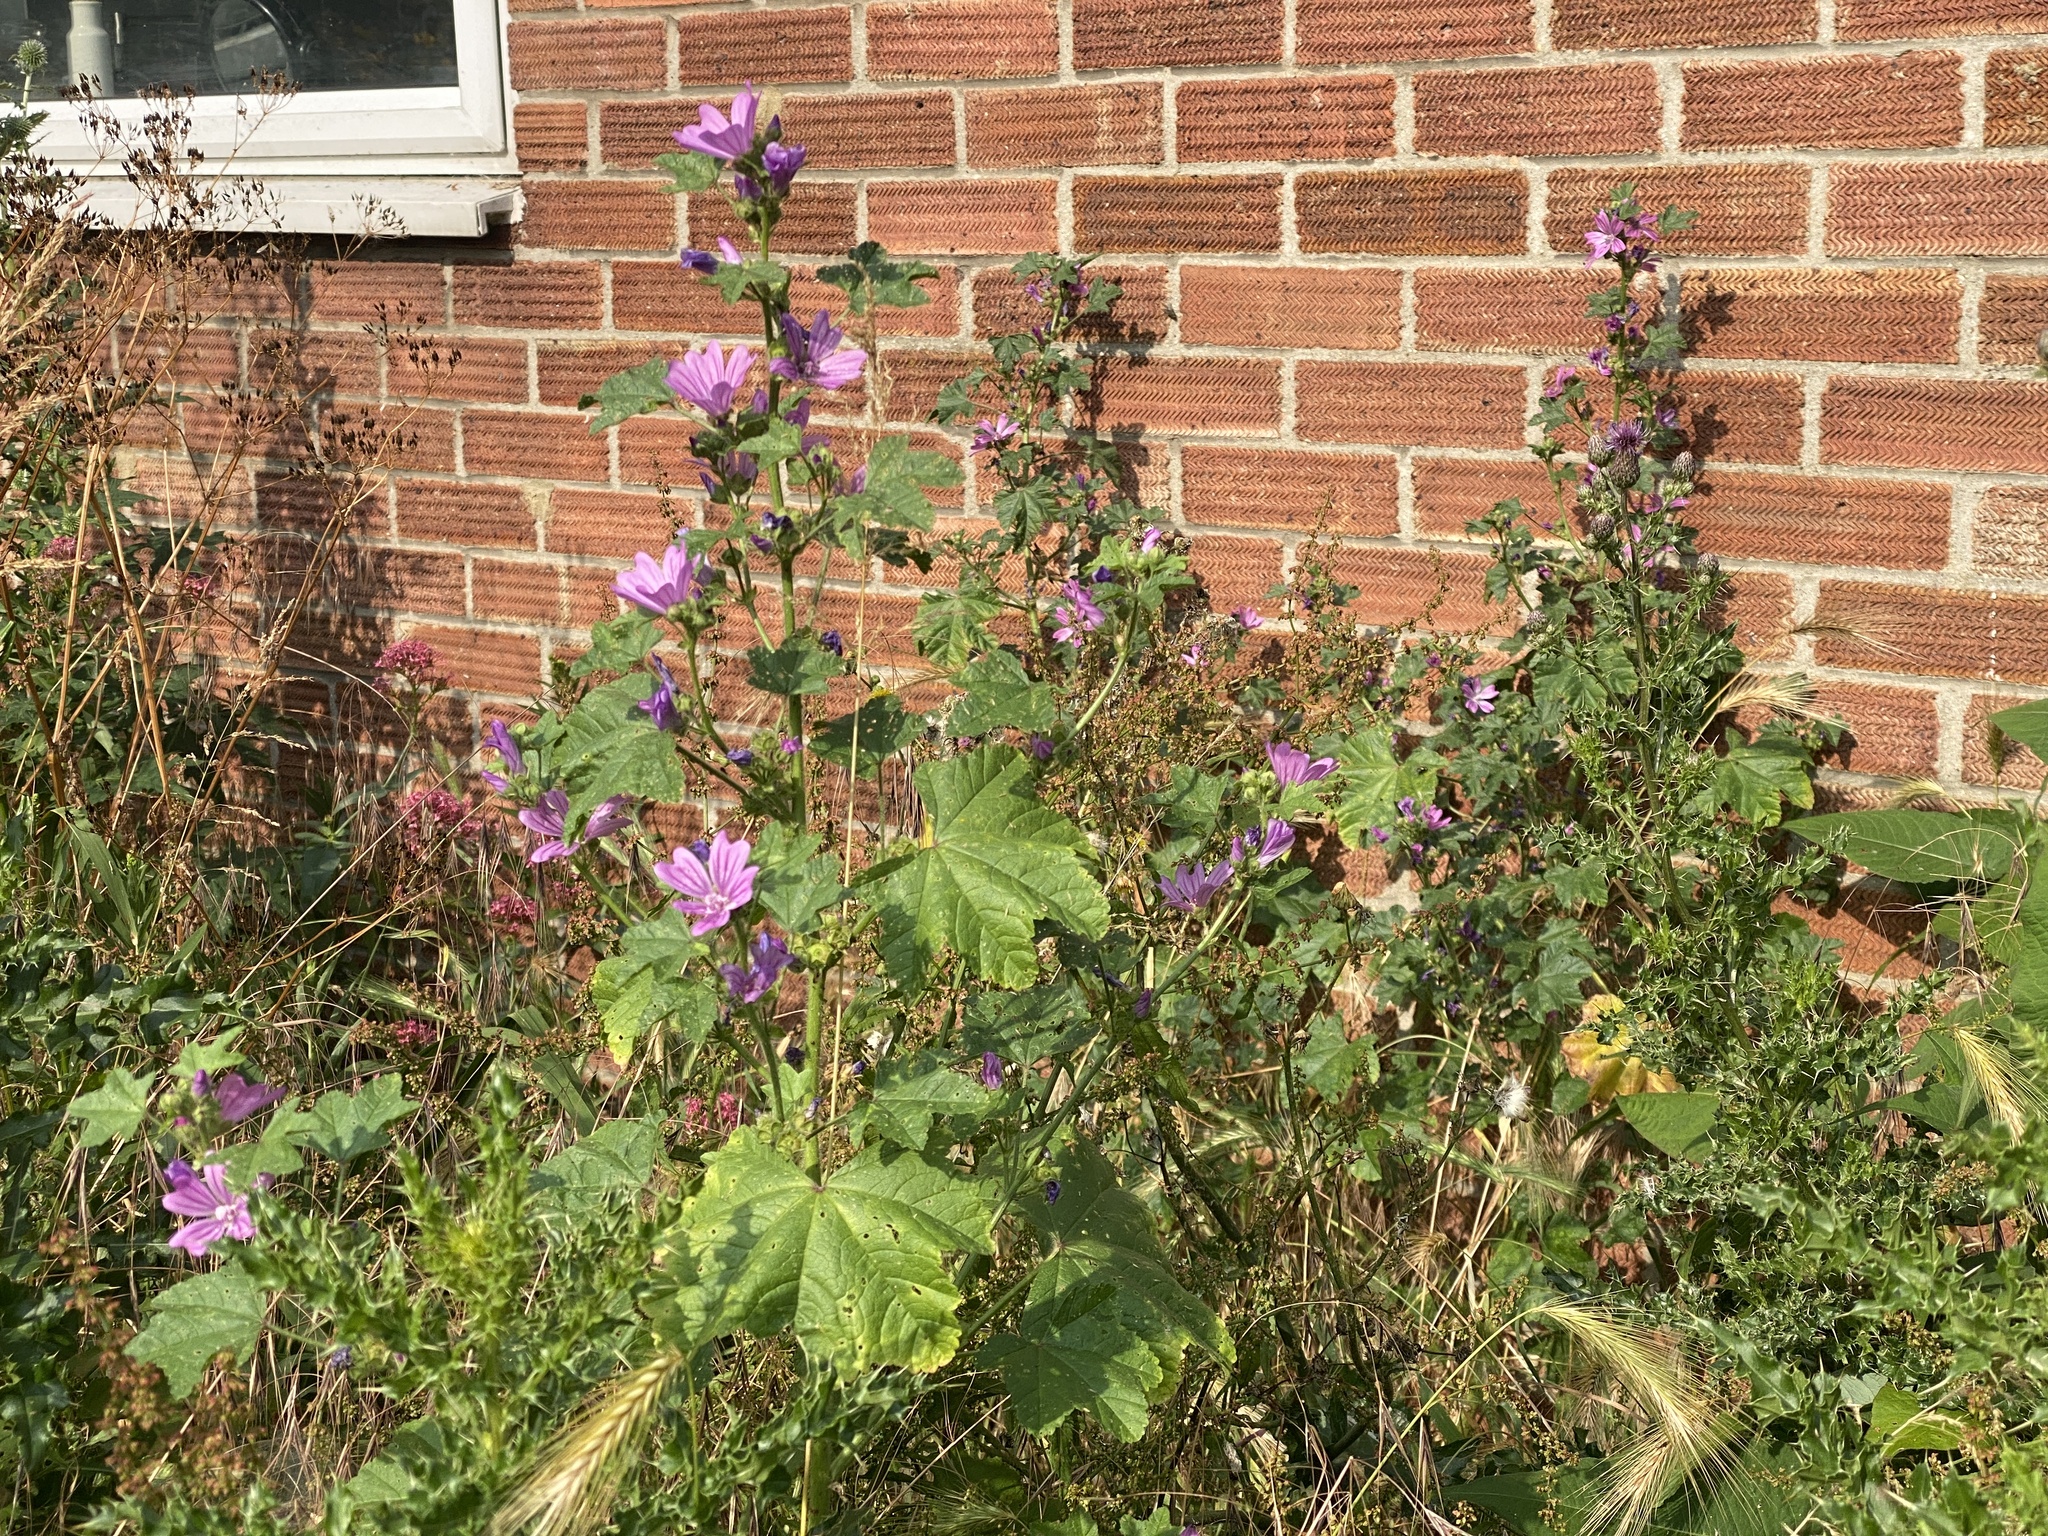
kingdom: Plantae
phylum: Tracheophyta
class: Magnoliopsida
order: Malvales
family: Malvaceae
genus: Malva
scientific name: Malva sylvestris
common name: Common mallow
